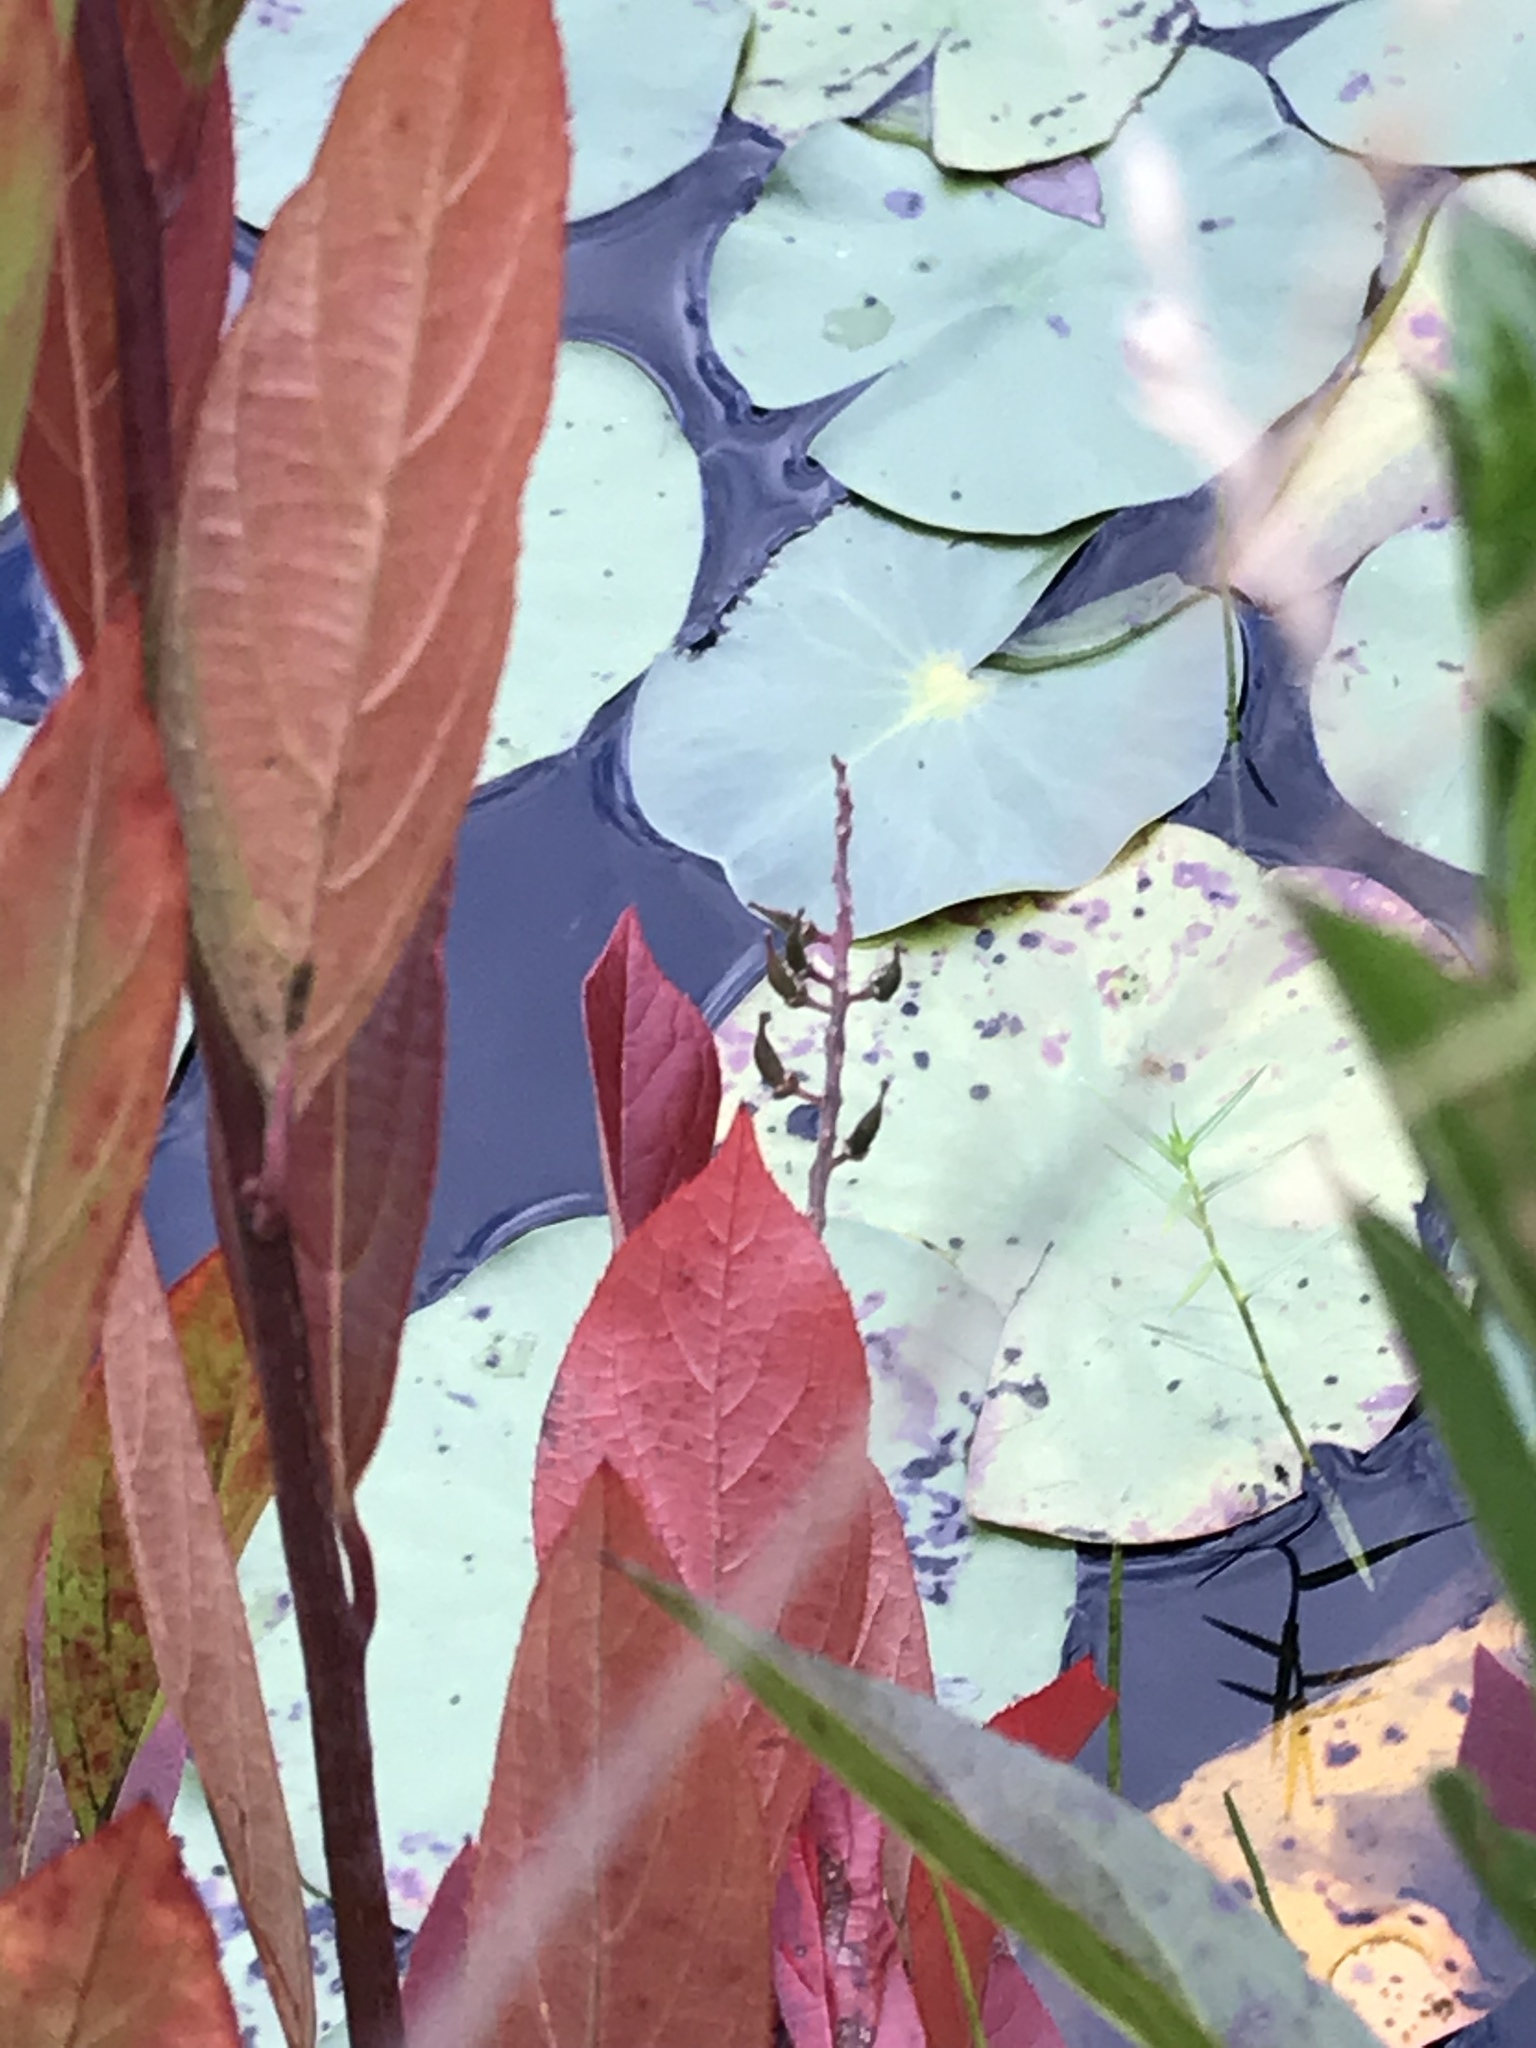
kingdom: Plantae
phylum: Tracheophyta
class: Magnoliopsida
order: Saxifragales
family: Iteaceae
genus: Itea
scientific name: Itea virginica
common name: Sweetspire
